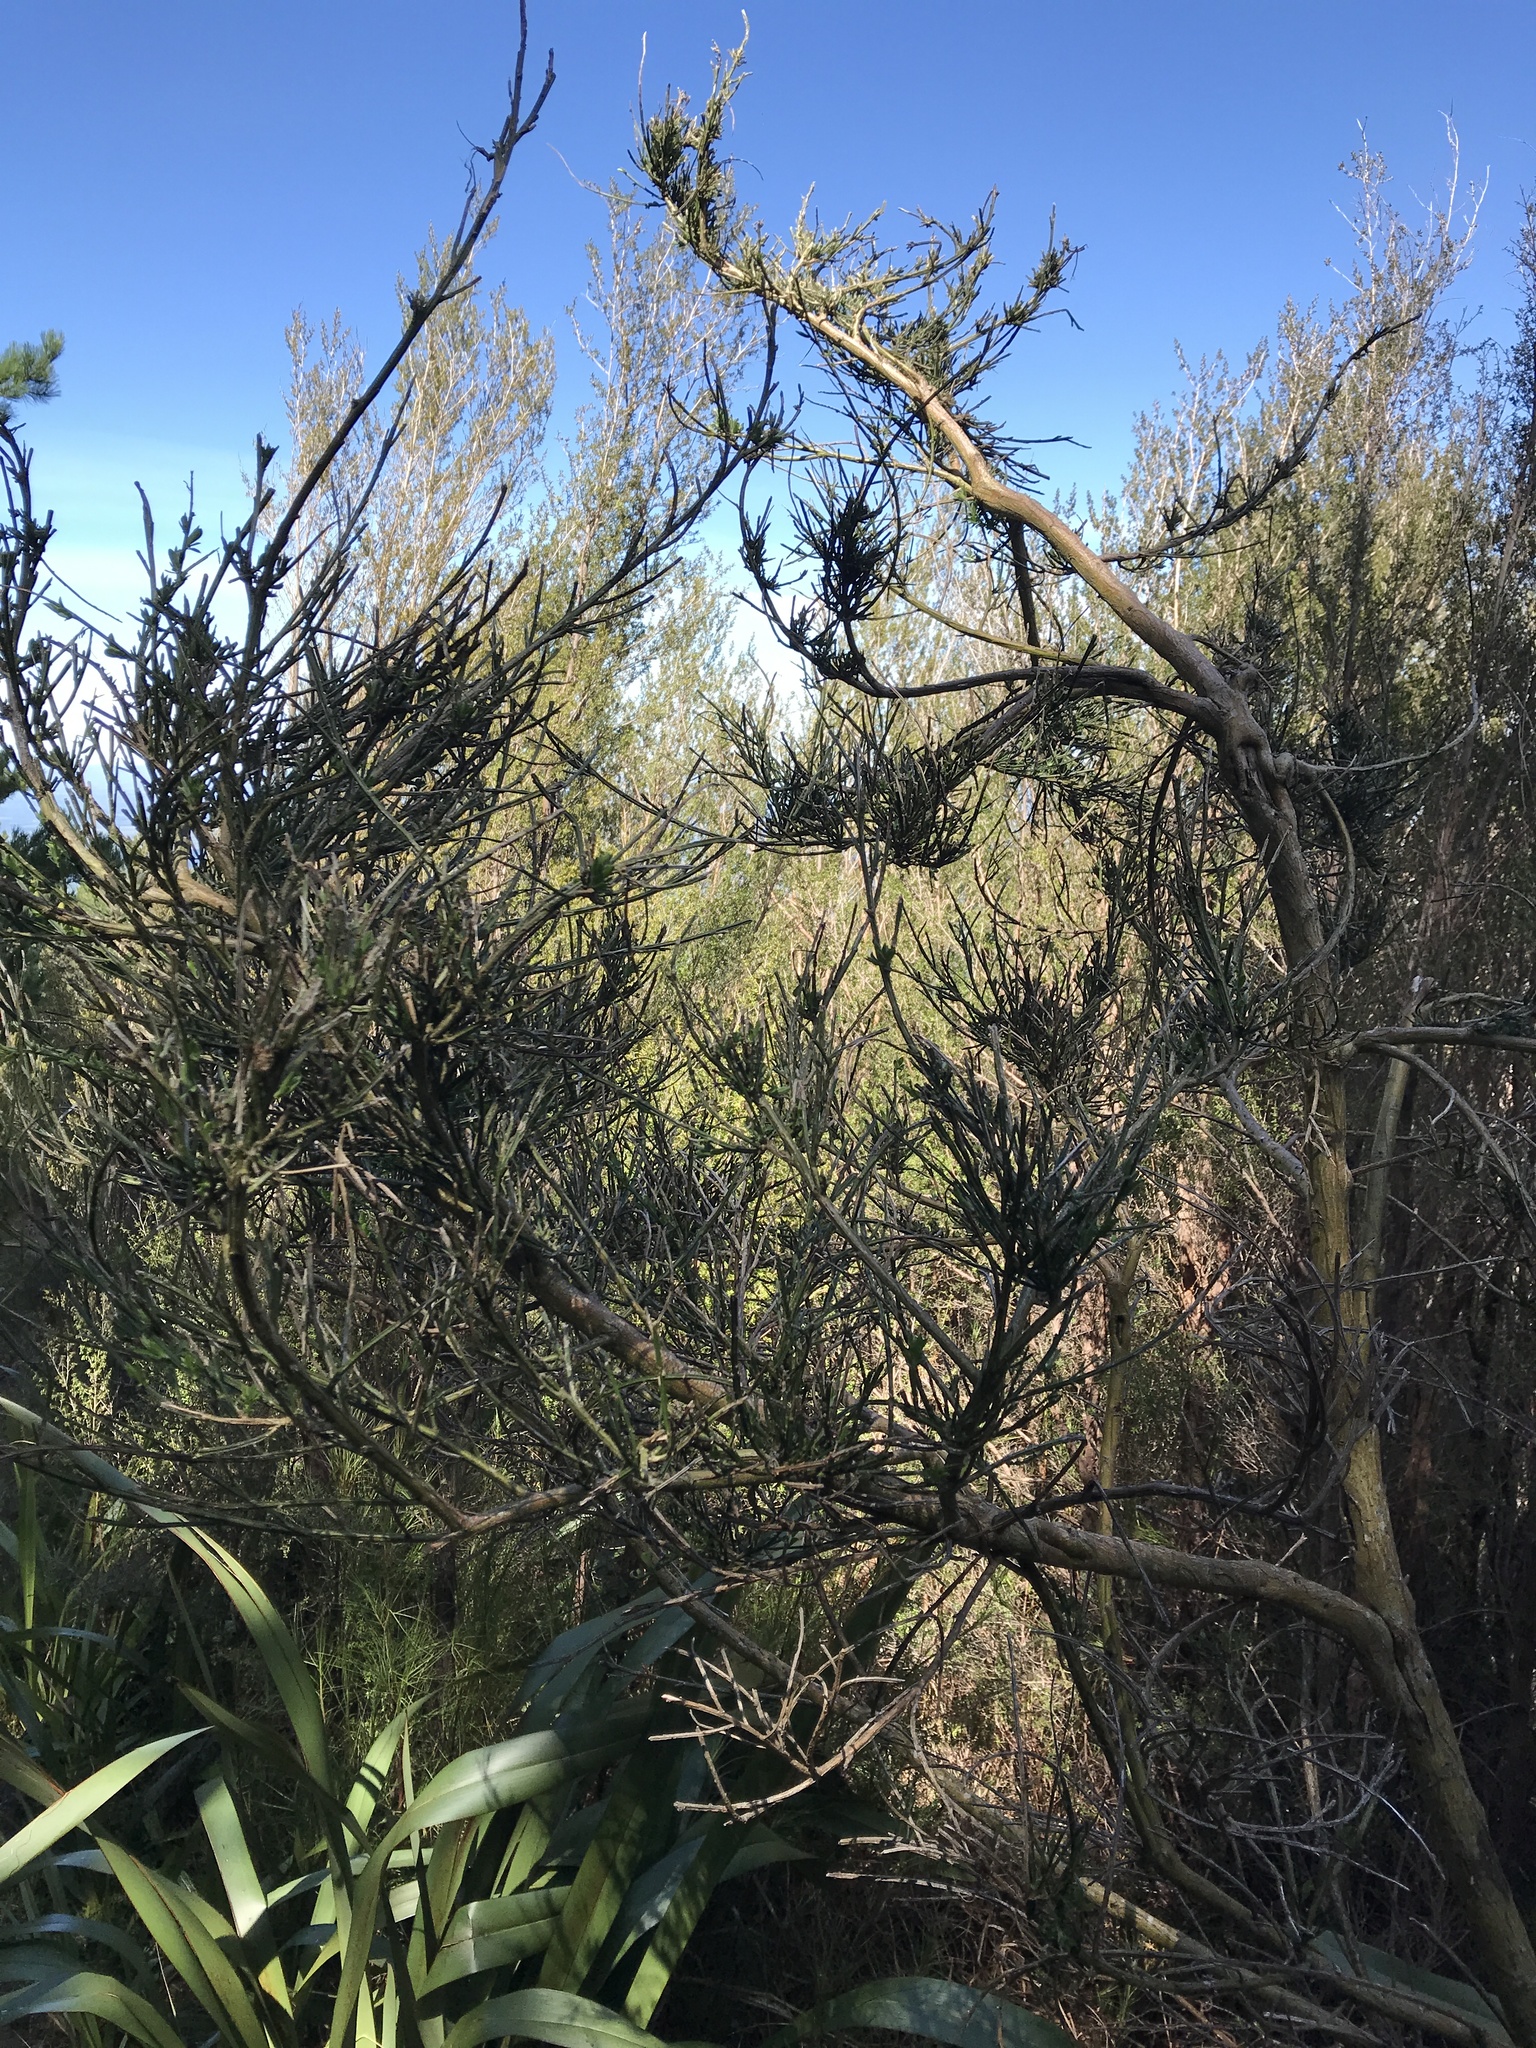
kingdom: Plantae
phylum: Tracheophyta
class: Magnoliopsida
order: Fabales
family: Fabaceae
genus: Cytisus
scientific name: Cytisus scoparius
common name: Scotch broom
